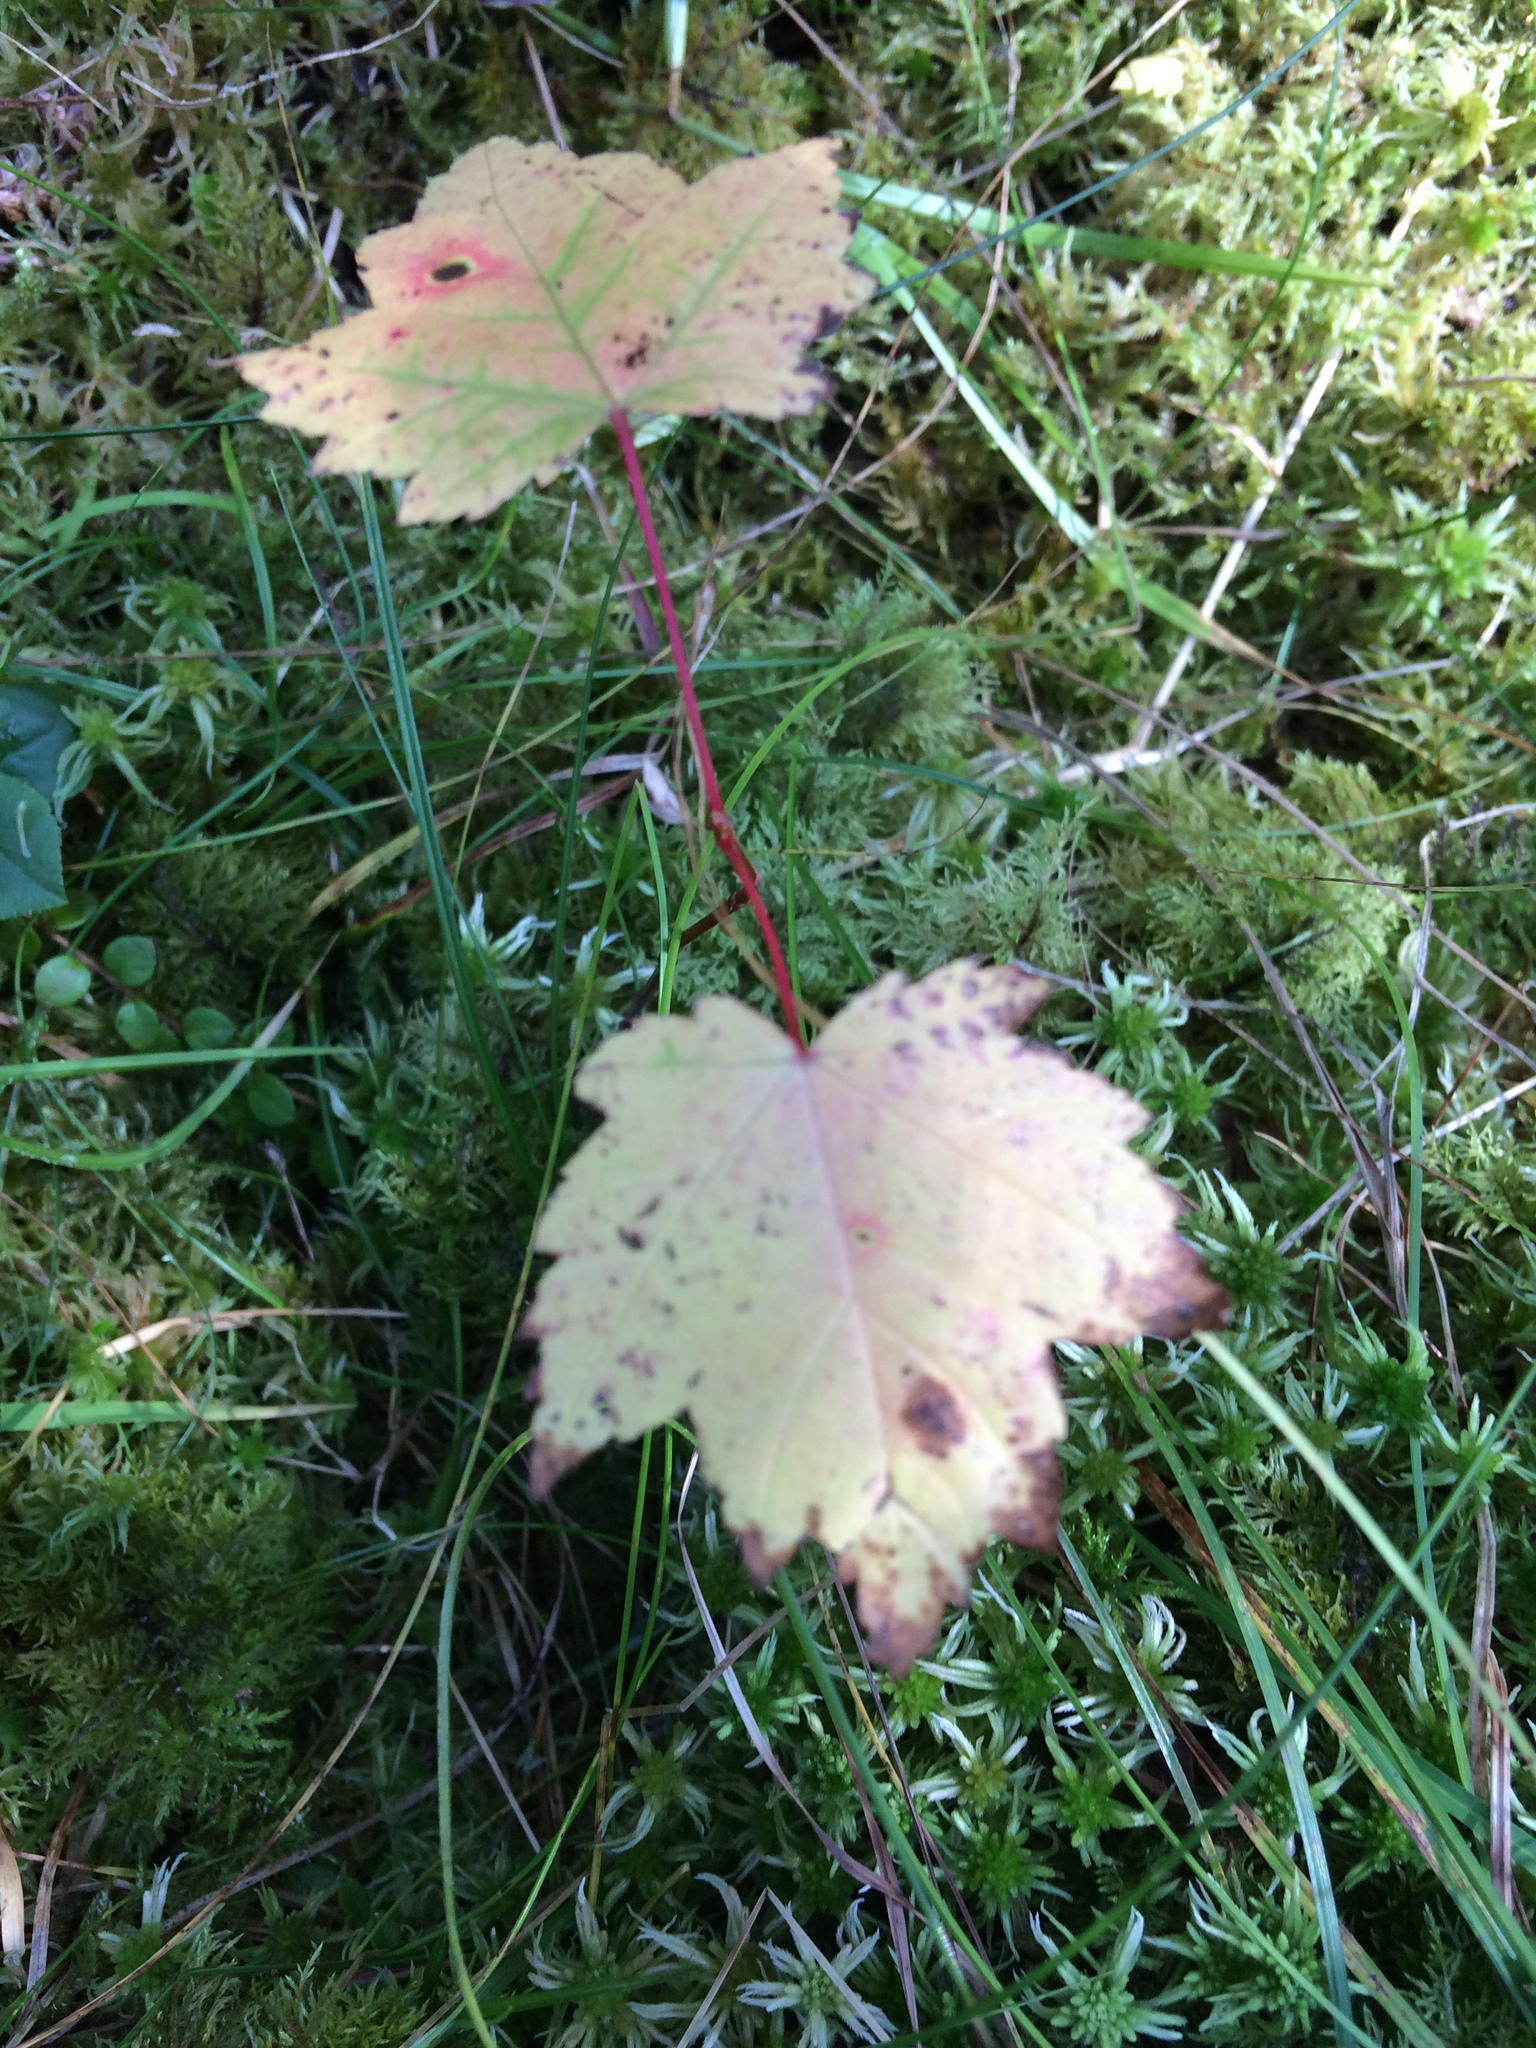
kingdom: Plantae
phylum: Tracheophyta
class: Magnoliopsida
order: Sapindales
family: Sapindaceae
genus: Acer
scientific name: Acer rubrum
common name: Red maple
